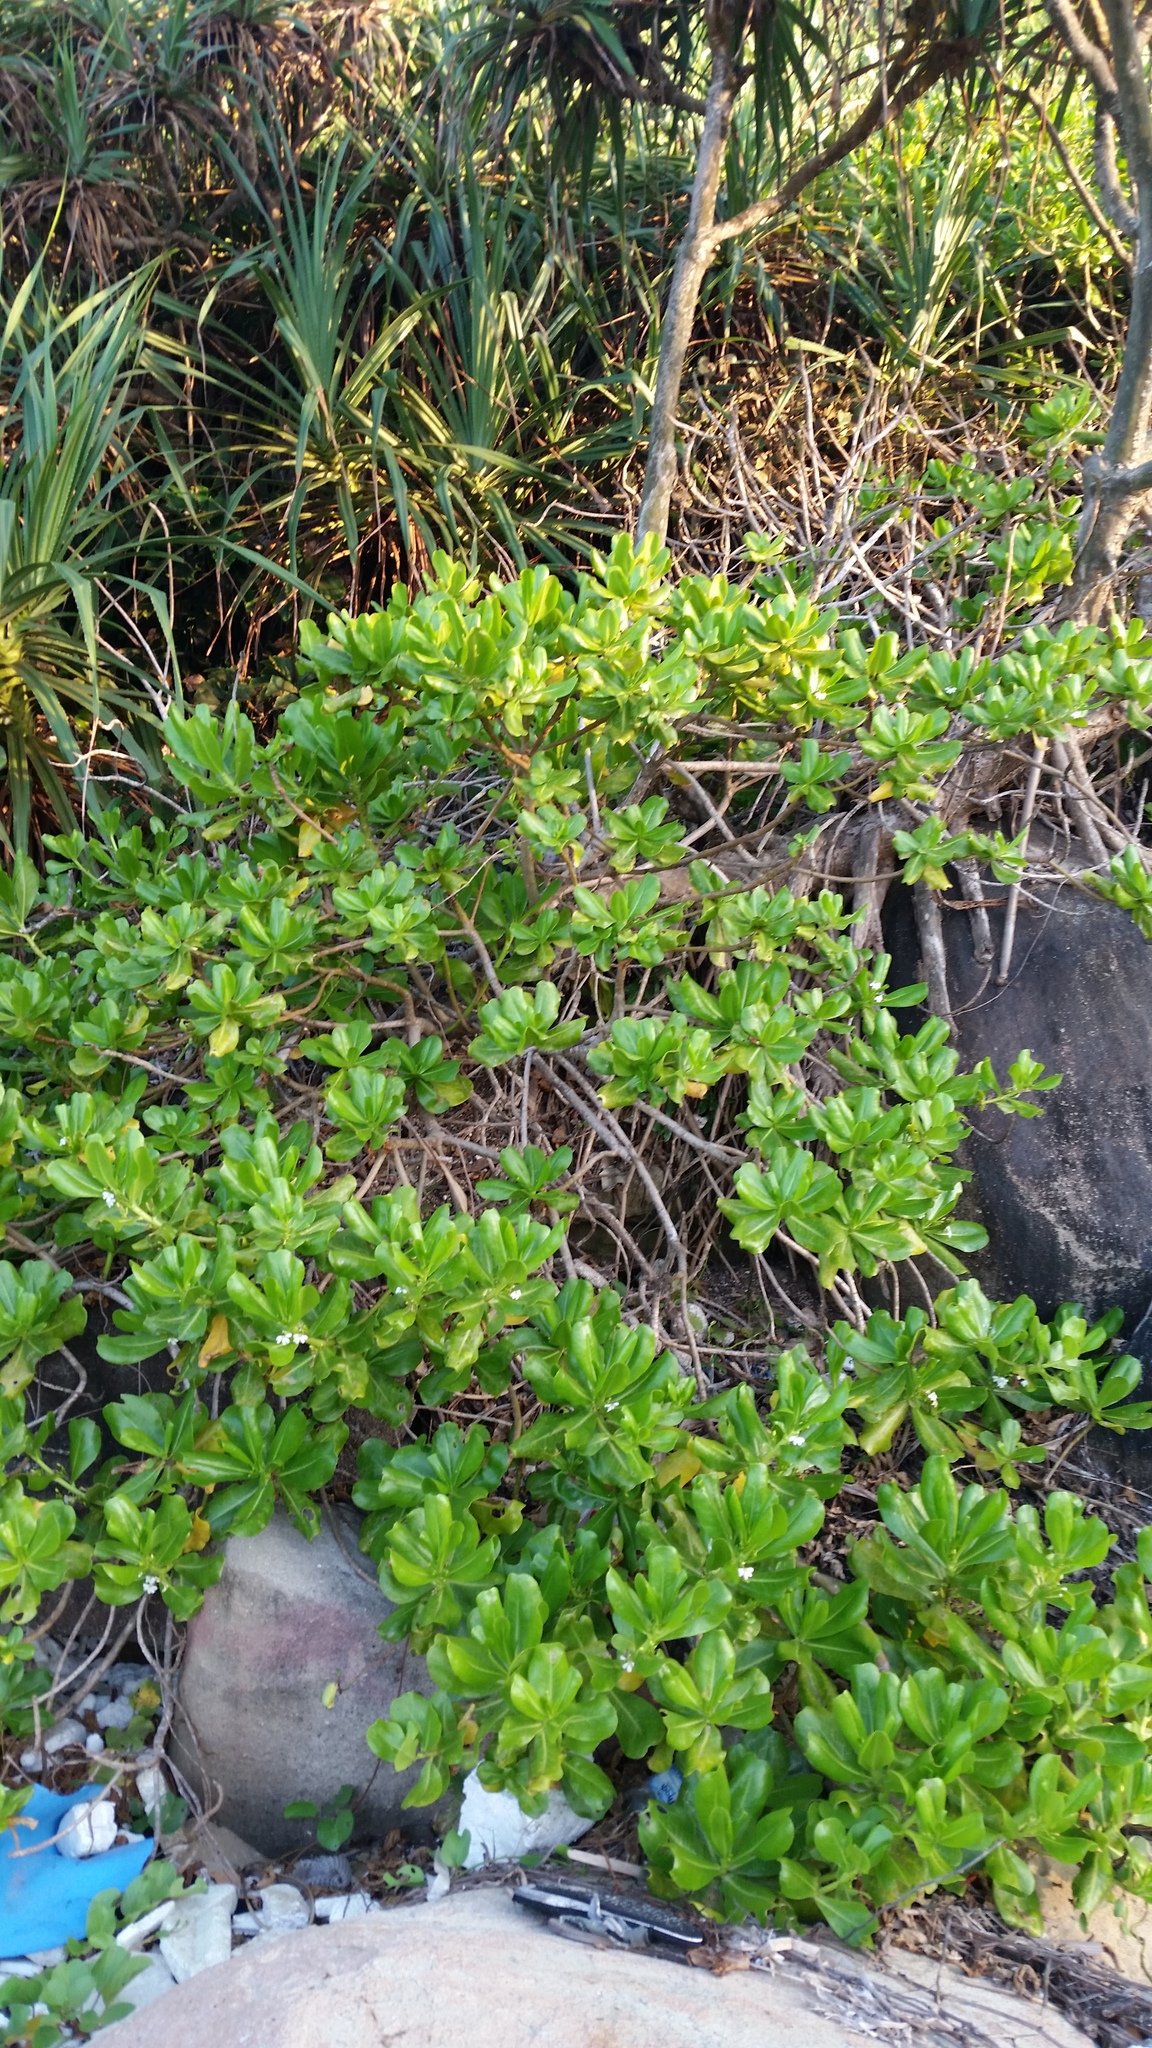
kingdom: Plantae
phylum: Tracheophyta
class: Magnoliopsida
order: Asterales
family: Goodeniaceae
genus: Scaevola
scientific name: Scaevola taccada
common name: Sea lettucetree
